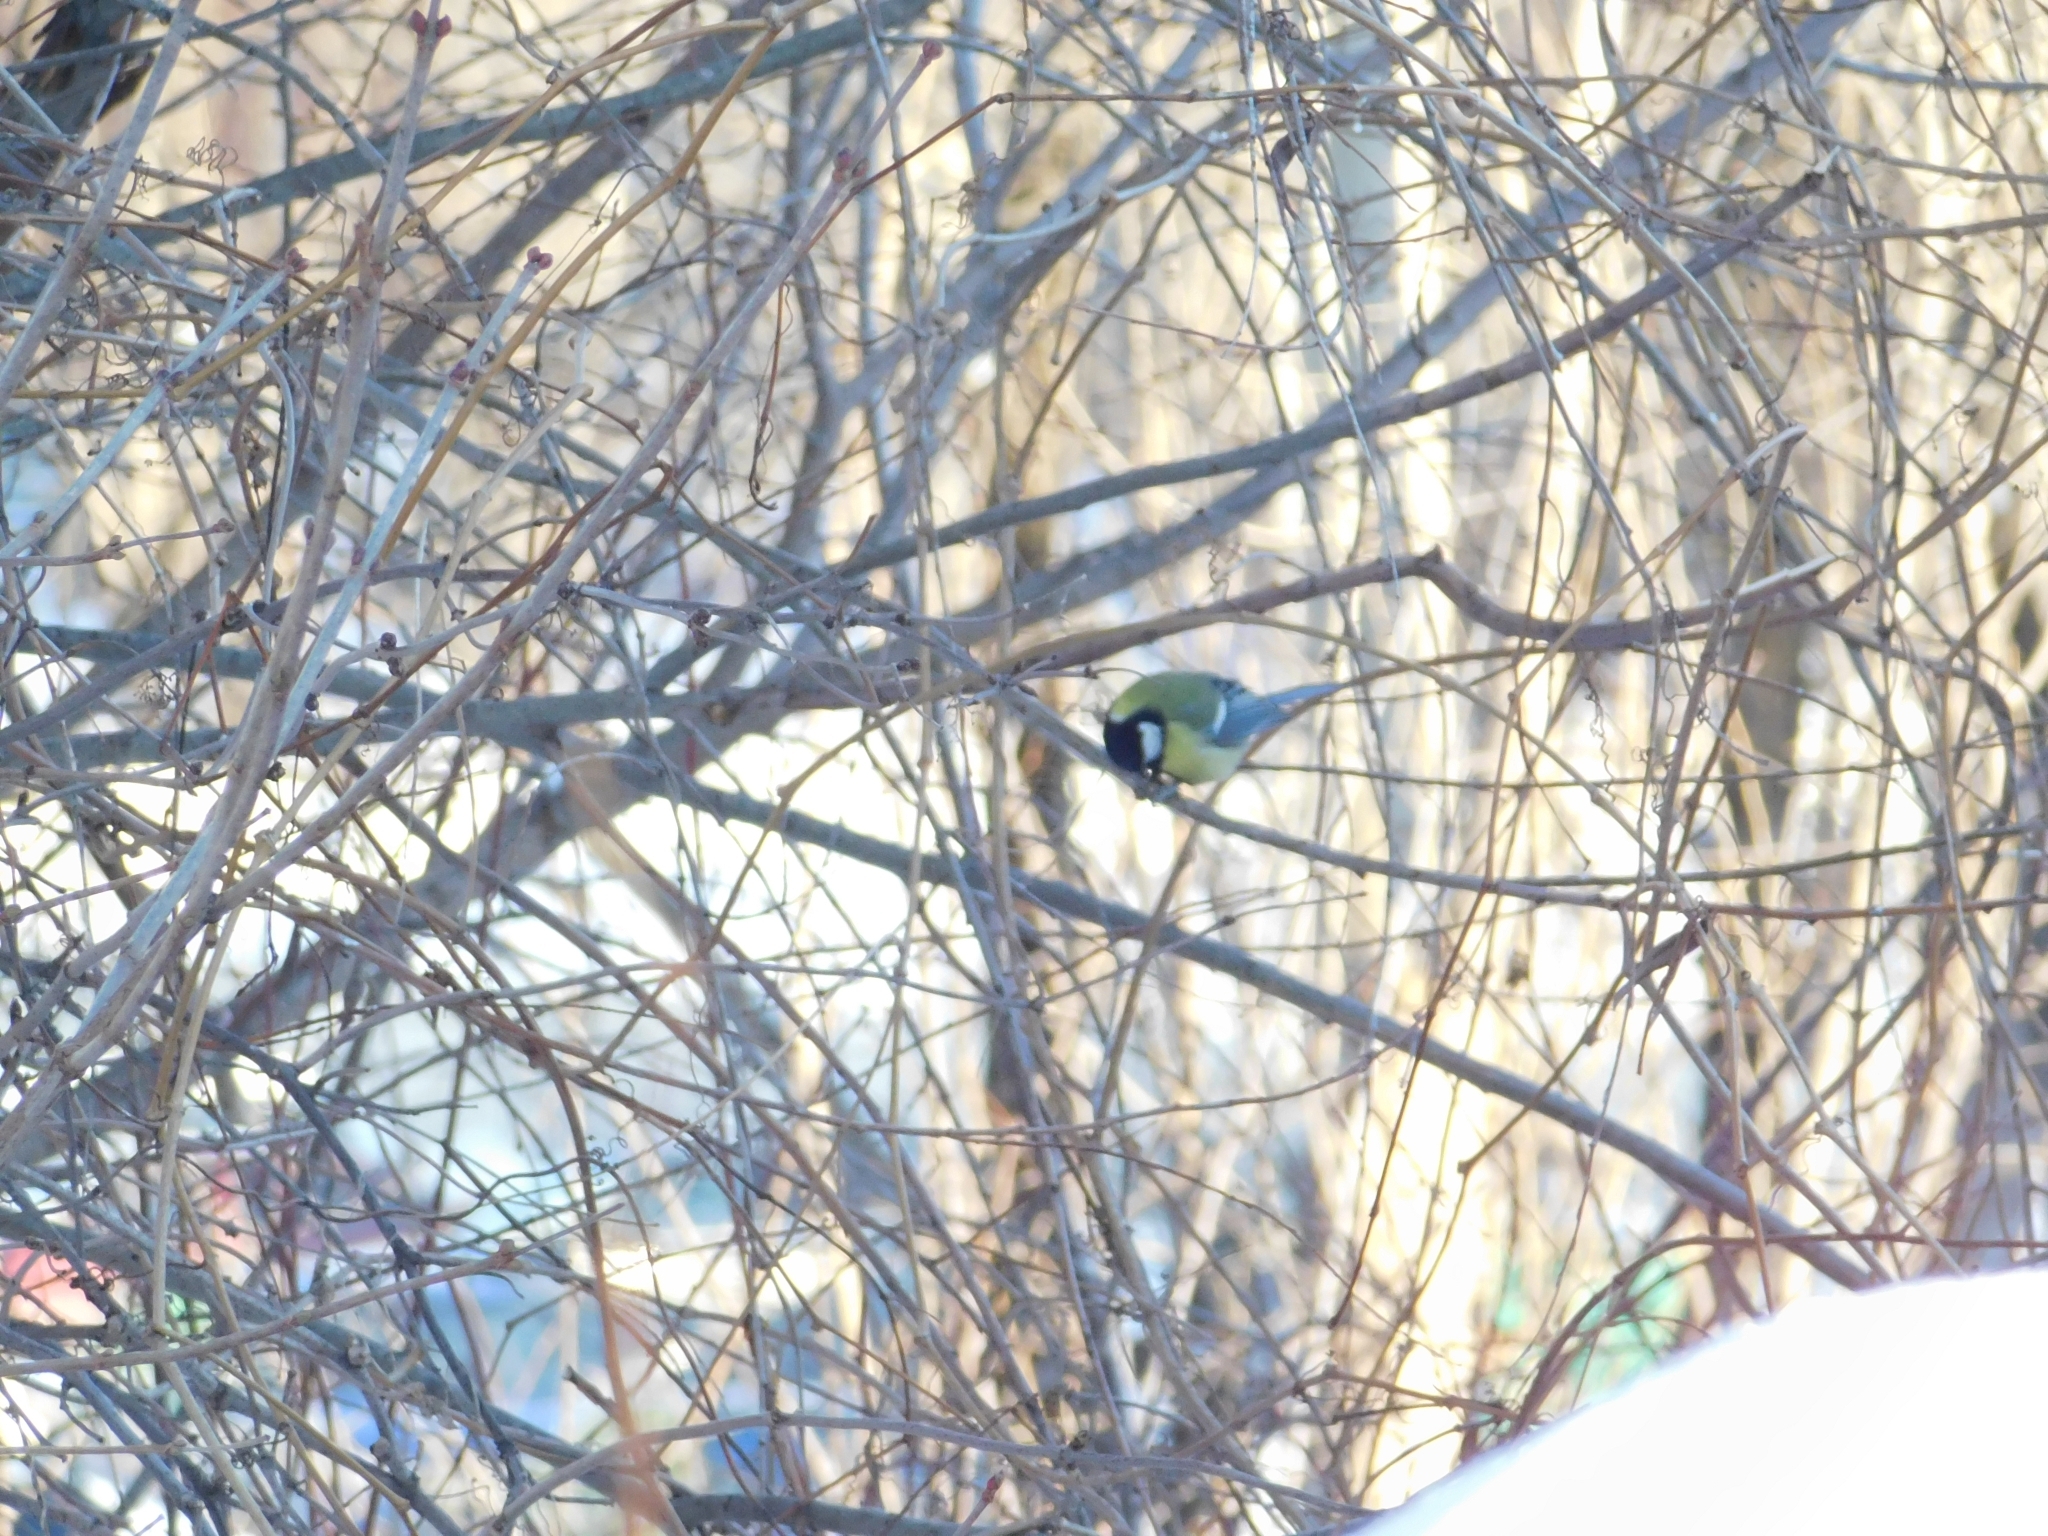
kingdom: Animalia
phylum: Chordata
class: Aves
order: Passeriformes
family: Paridae
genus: Parus
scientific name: Parus major
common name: Great tit
